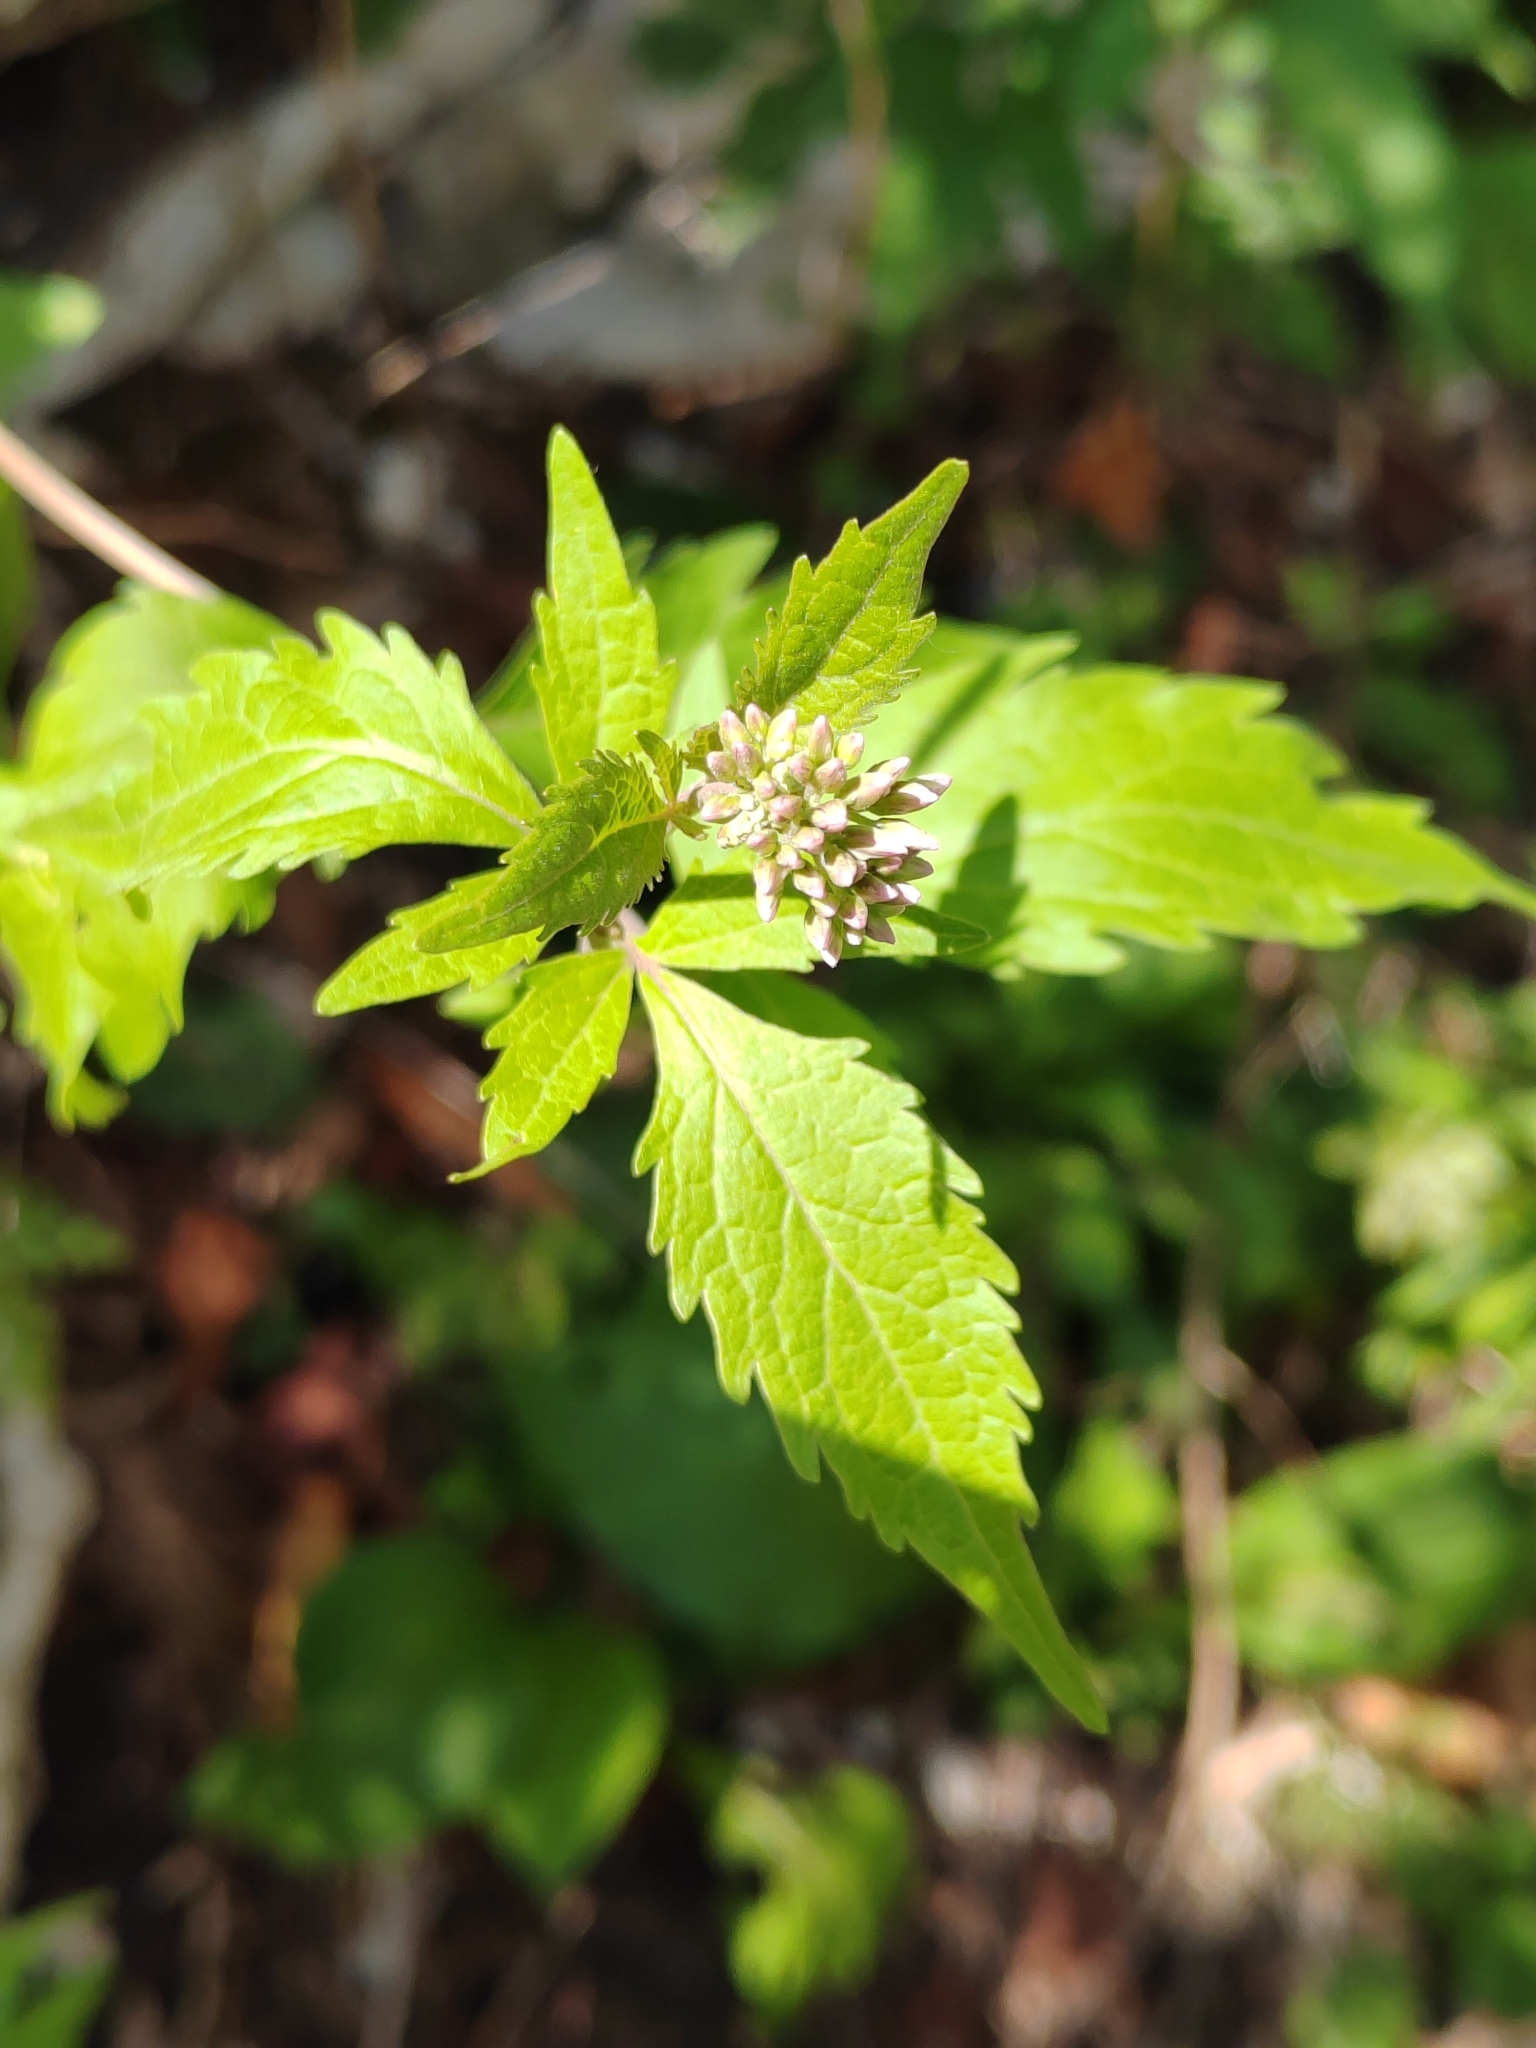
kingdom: Plantae
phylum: Tracheophyta
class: Magnoliopsida
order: Asterales
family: Asteraceae
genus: Eupatorium
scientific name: Eupatorium cannabinum
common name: Hemp-agrimony
